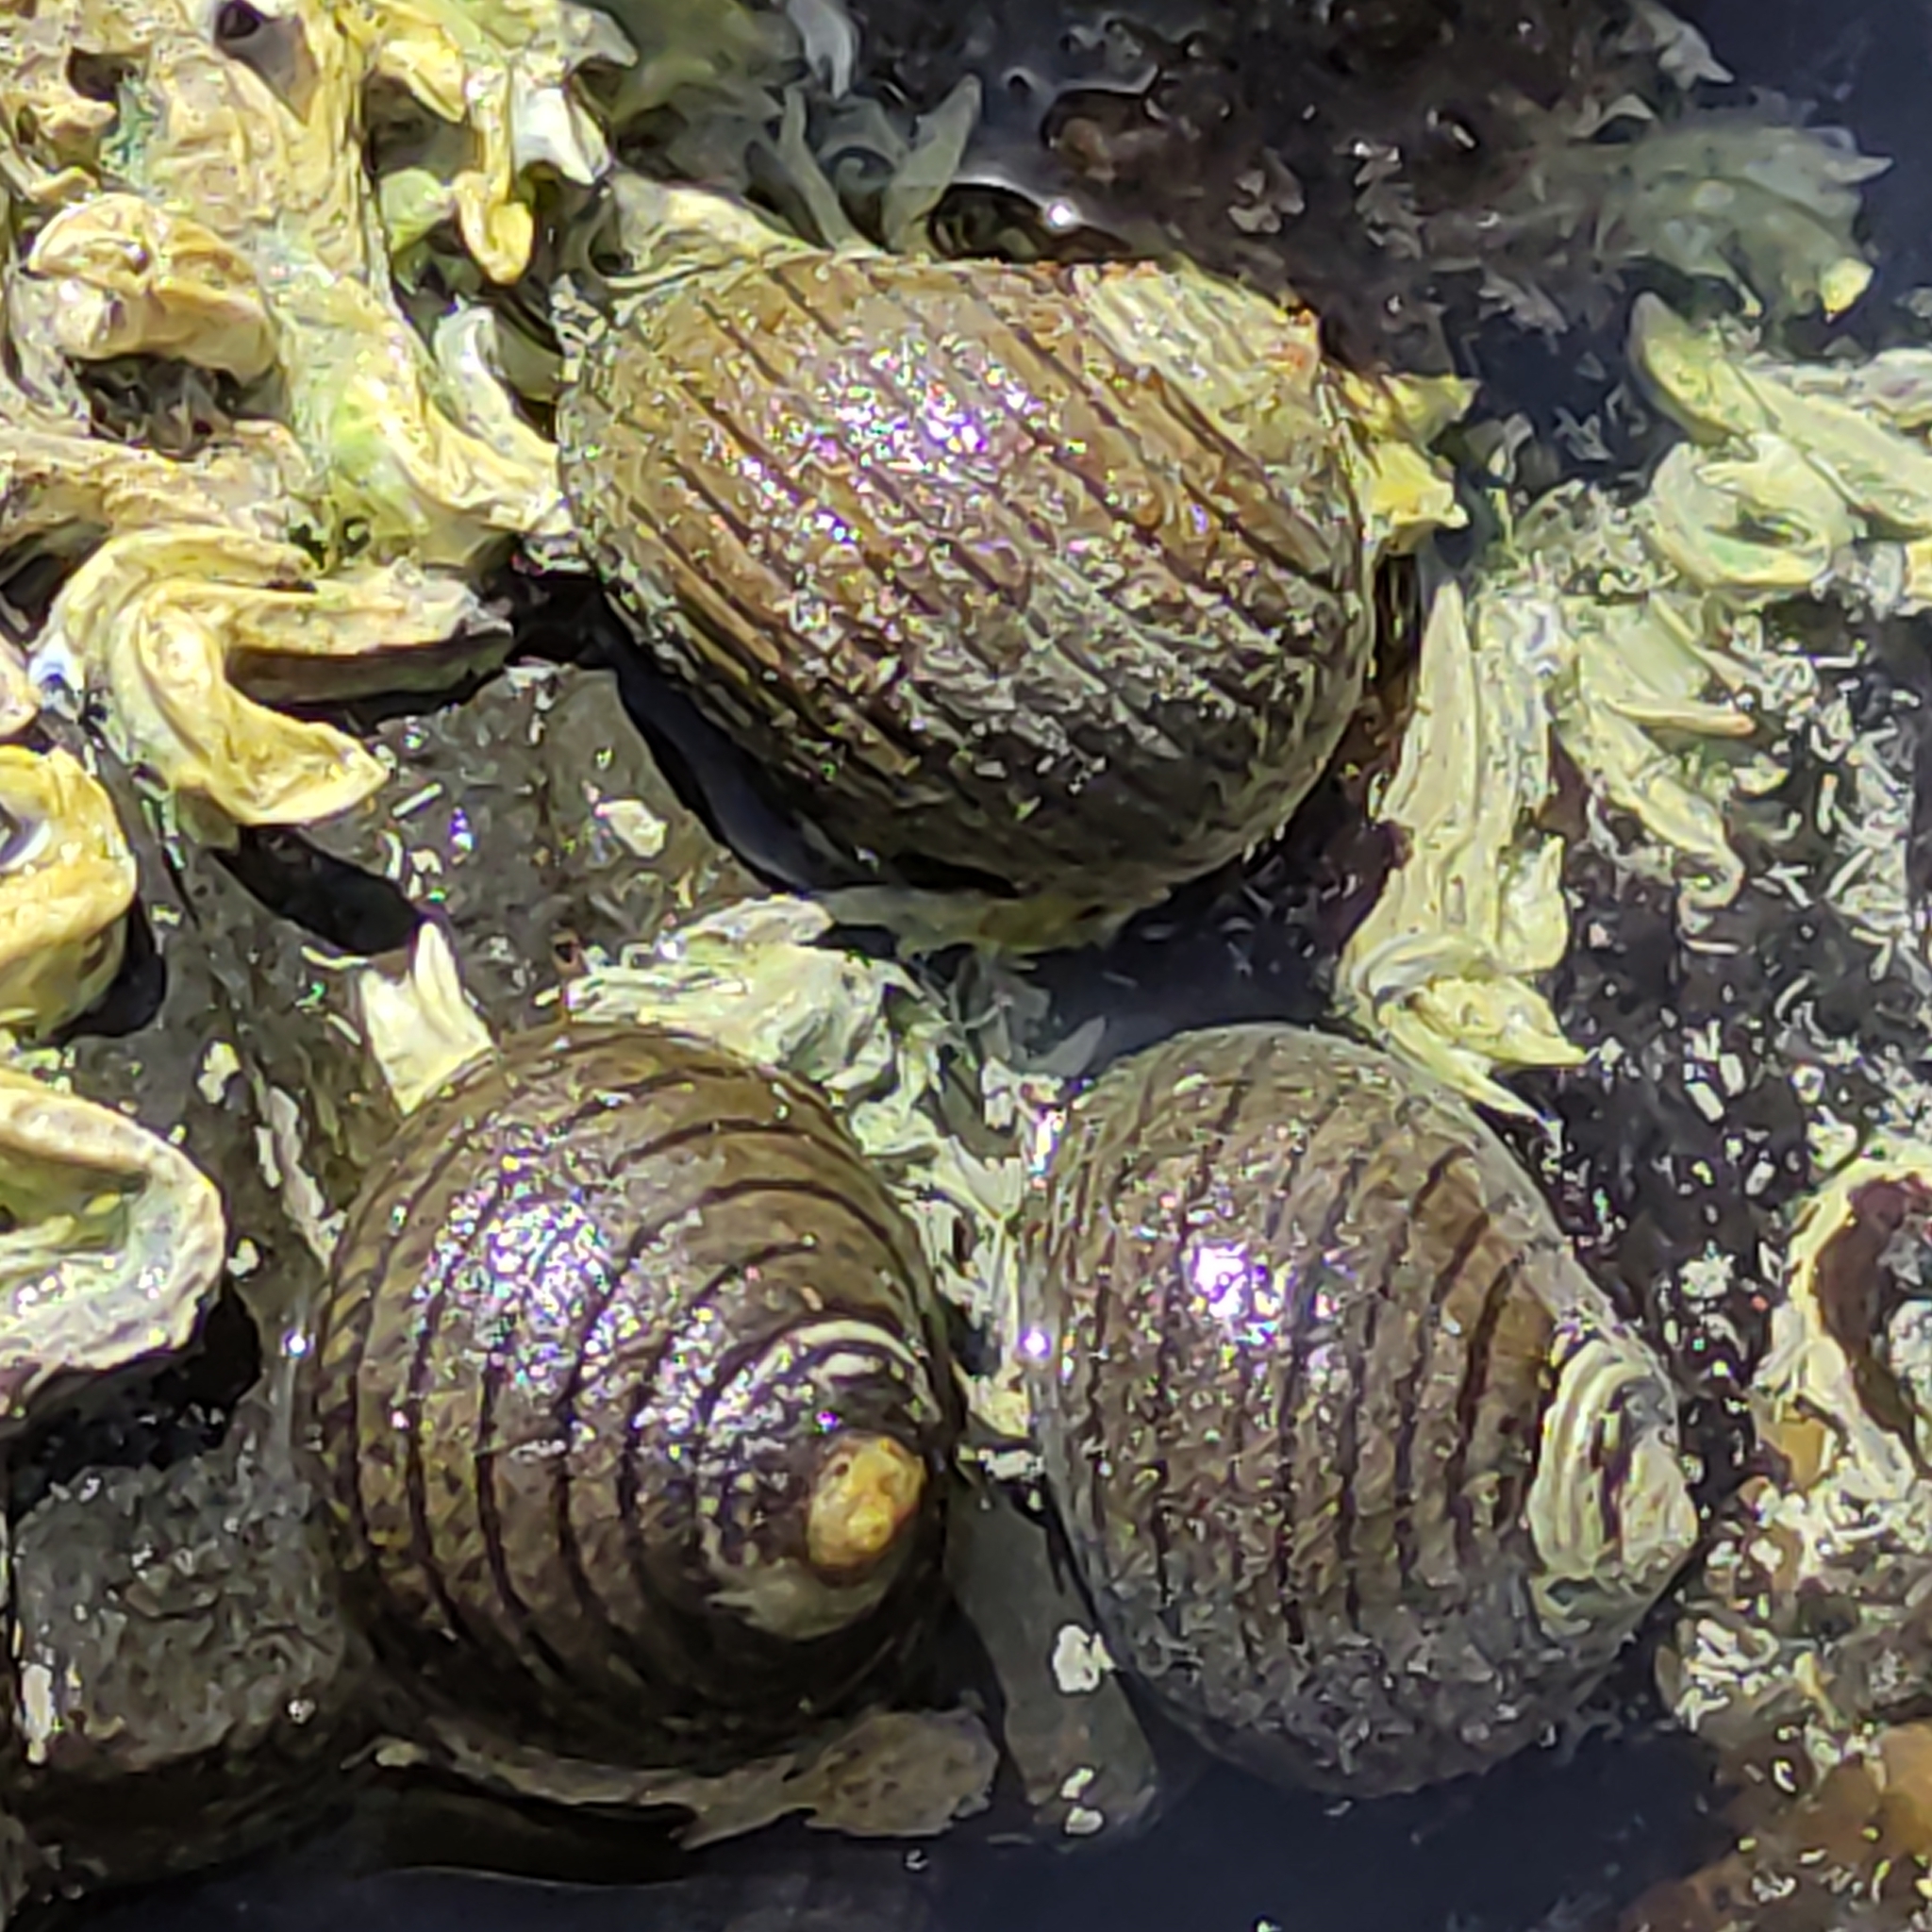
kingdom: Animalia
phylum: Mollusca
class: Gastropoda
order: Trochida
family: Trochidae
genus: Diloma
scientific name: Diloma aethiops
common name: Scorched monodont
